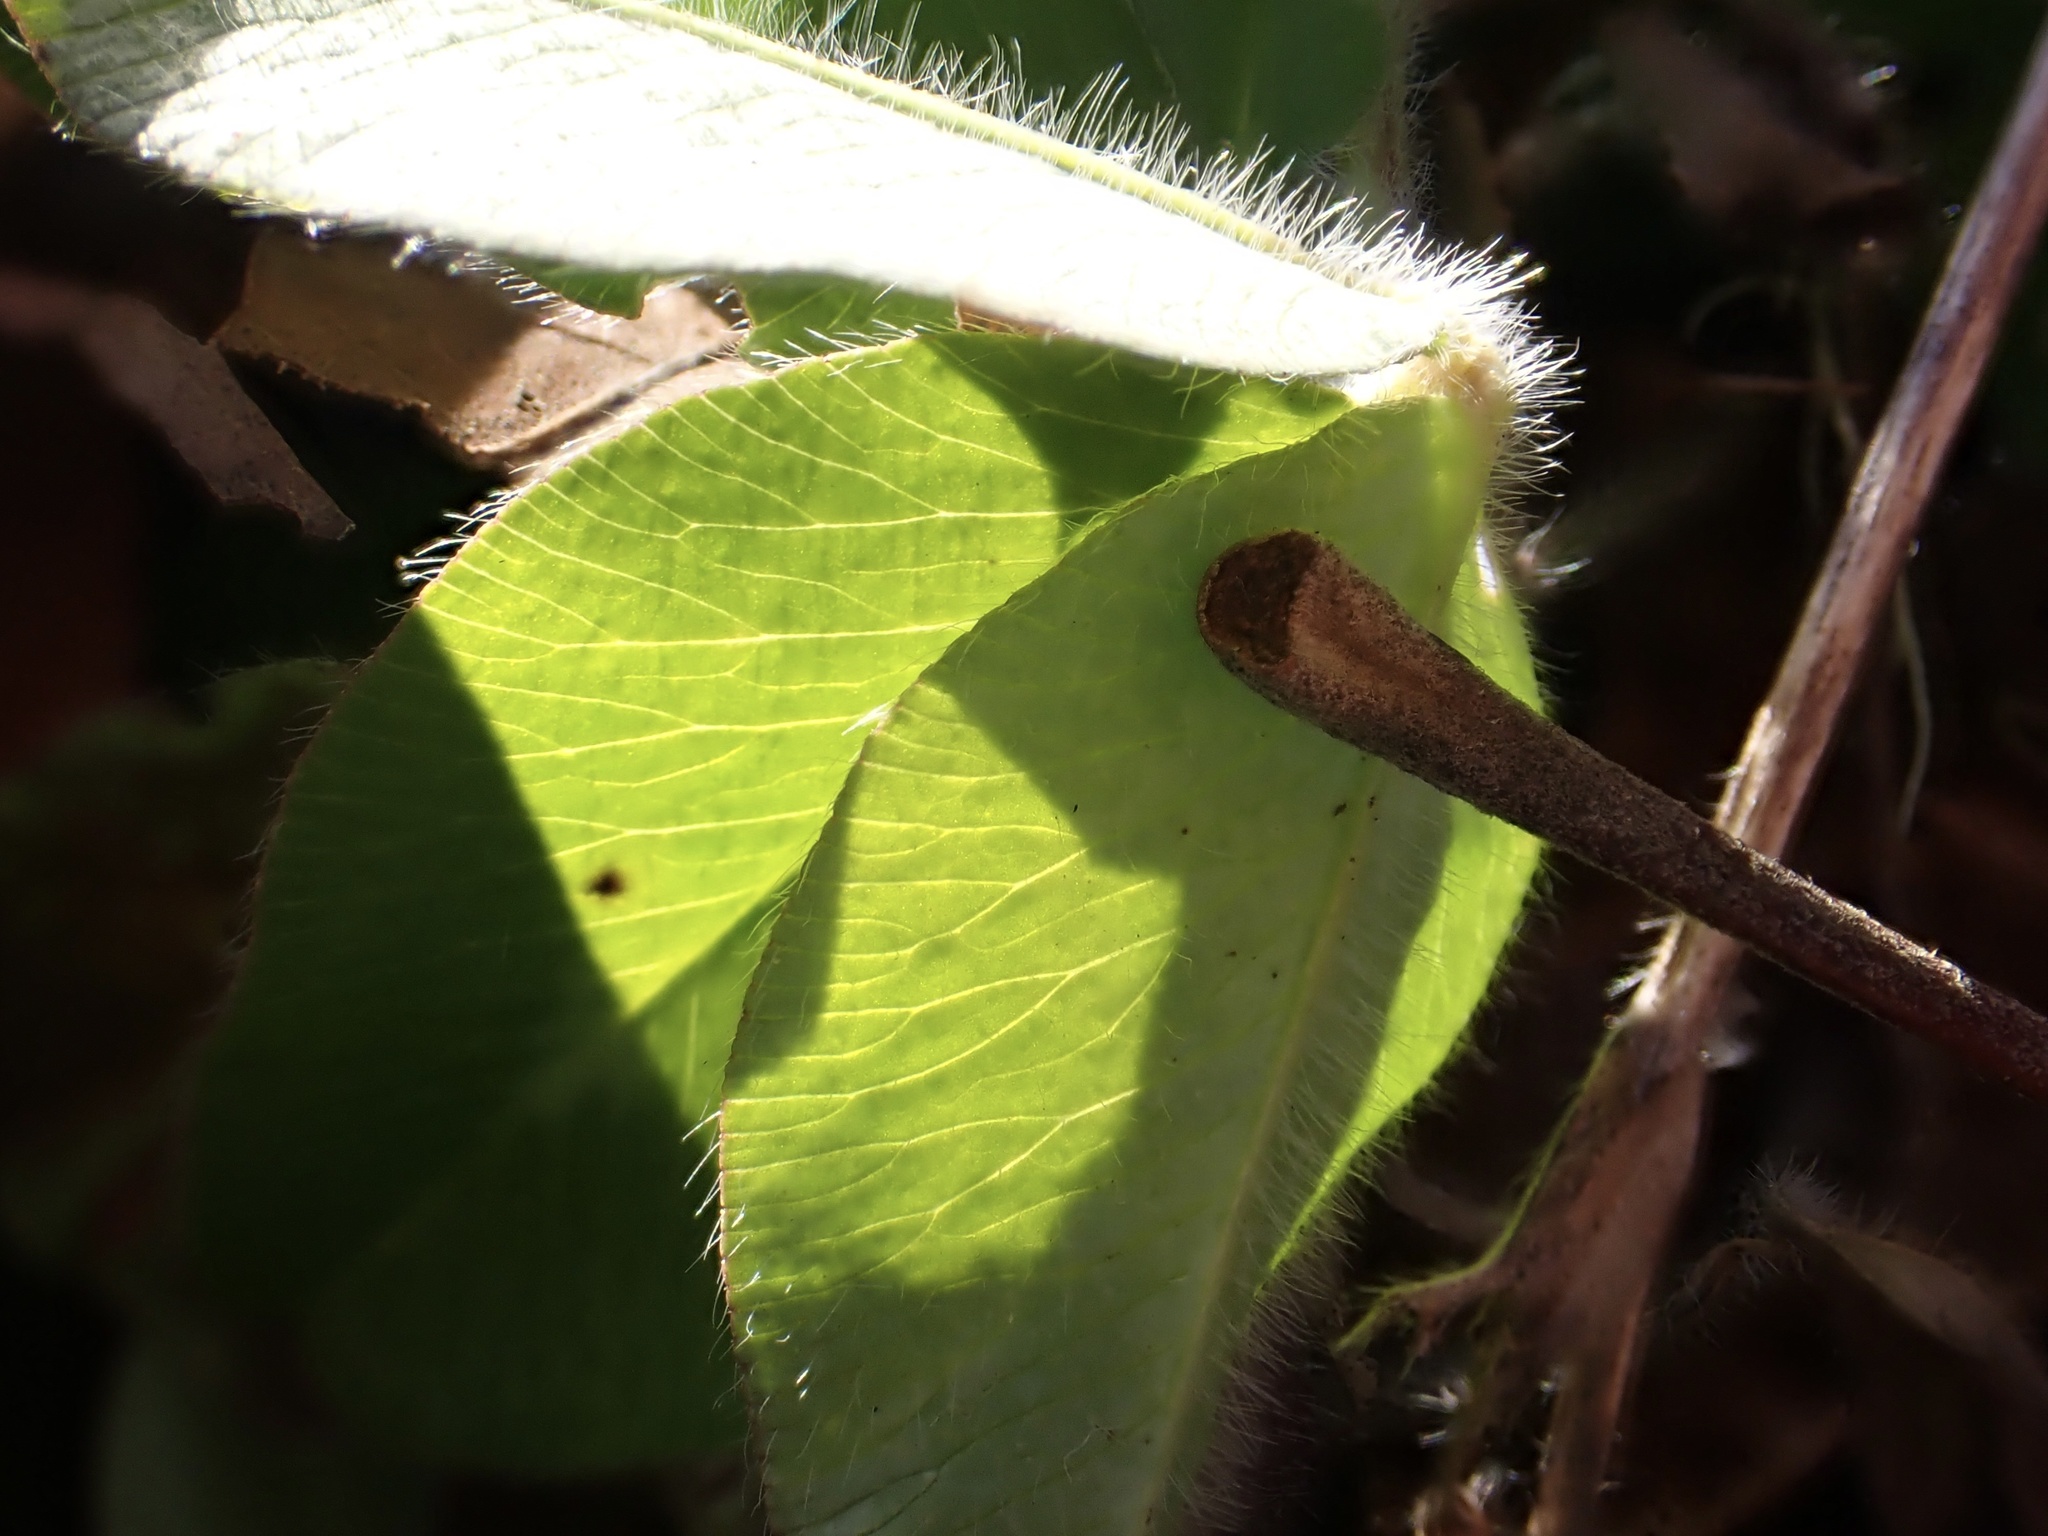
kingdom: Plantae
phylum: Tracheophyta
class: Magnoliopsida
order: Fabales
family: Fabaceae
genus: Trifolium
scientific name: Trifolium pratense
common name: Red clover
